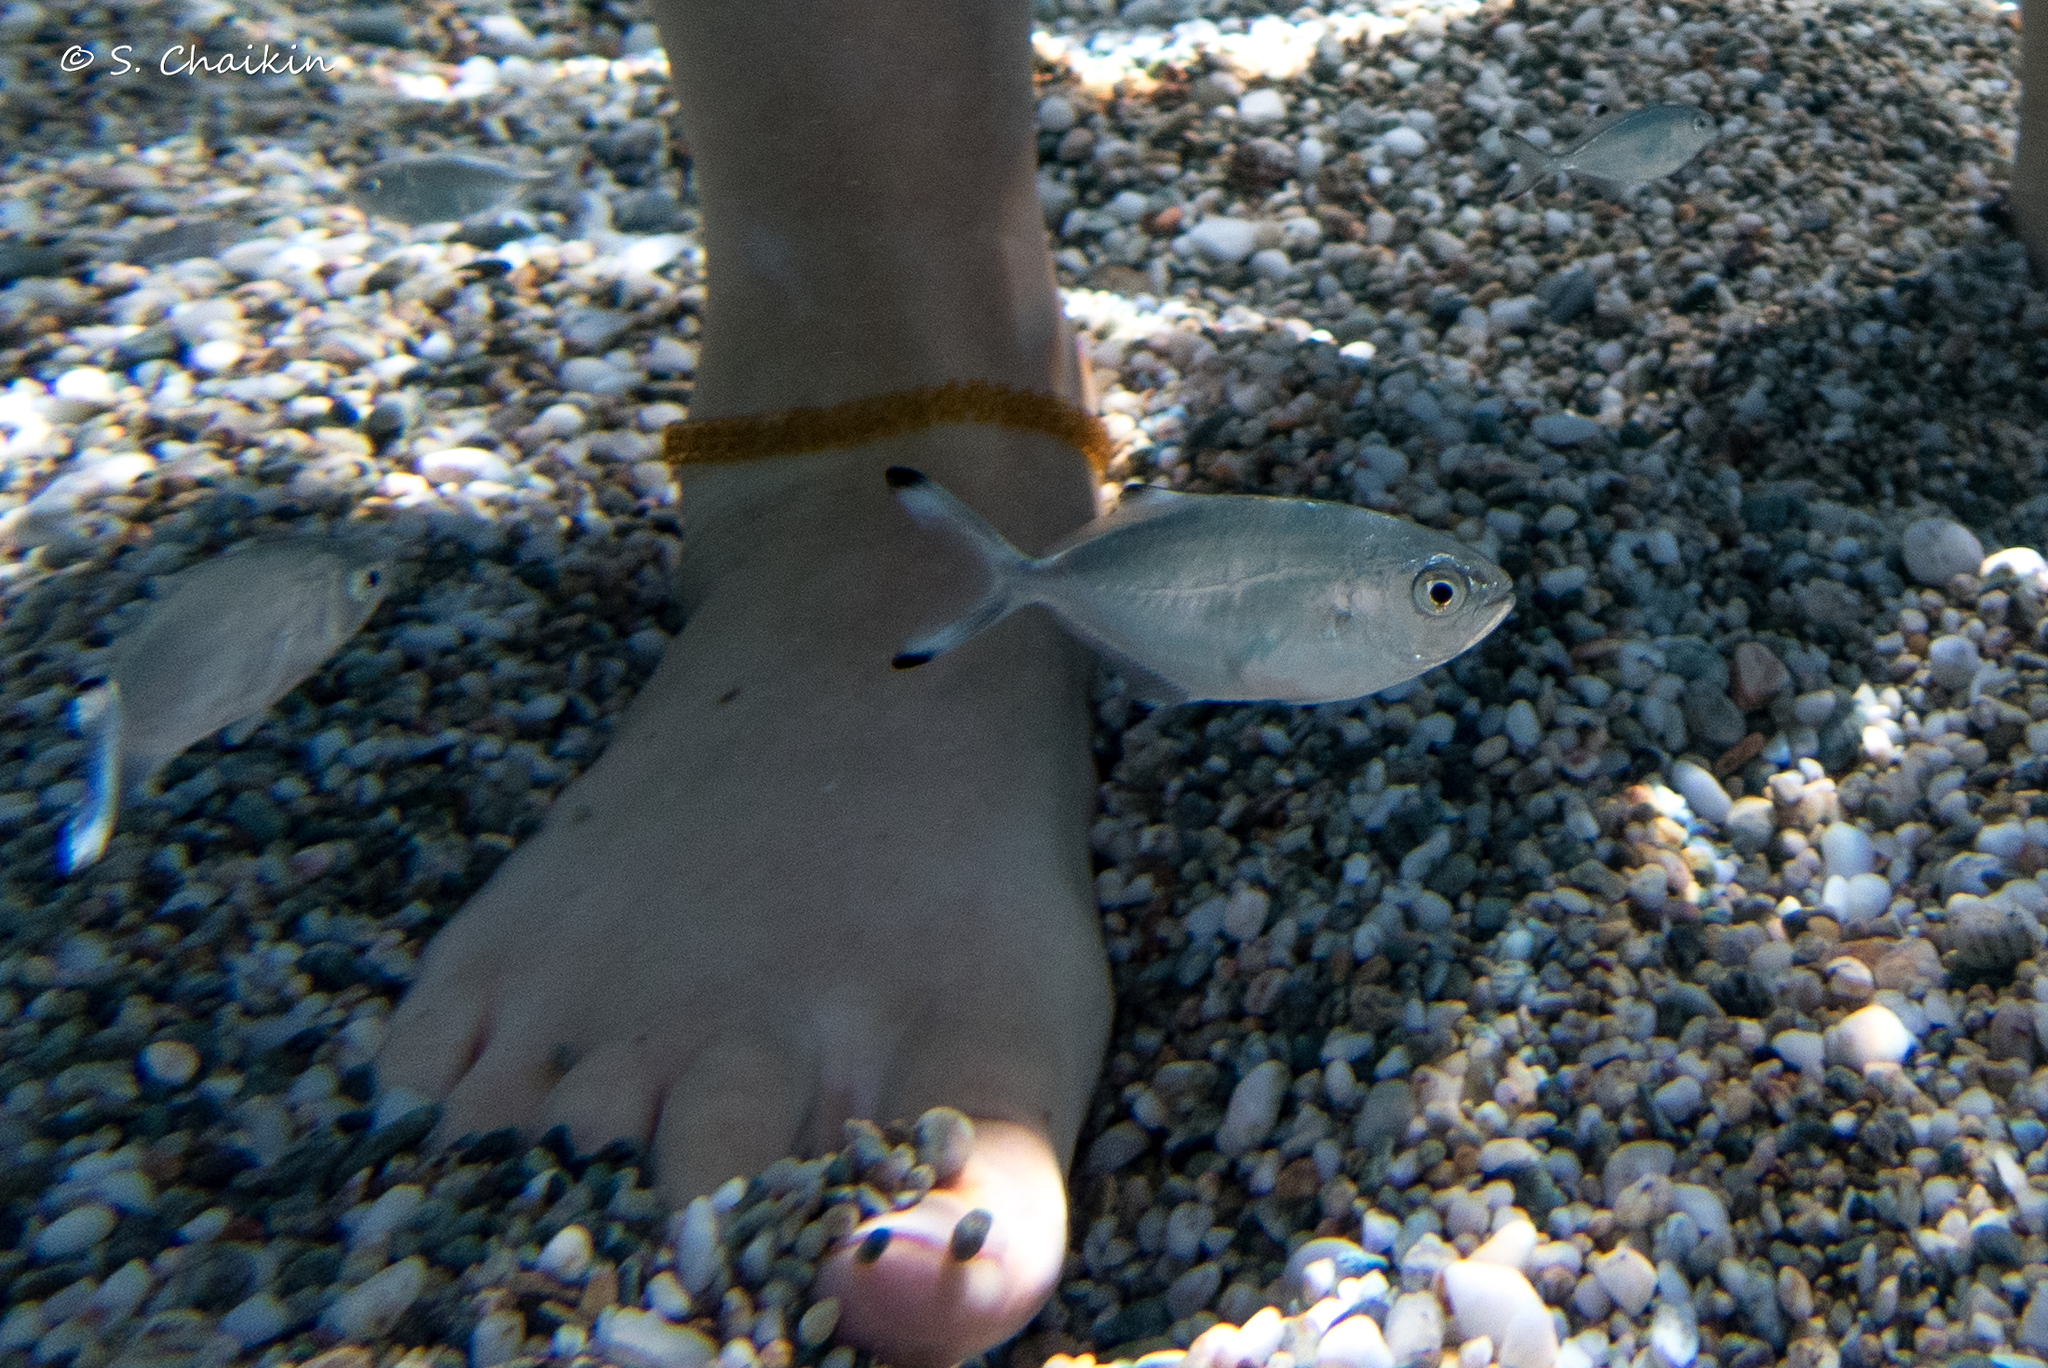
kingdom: Animalia
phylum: Chordata
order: Perciformes
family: Carangidae
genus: Trachinotus
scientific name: Trachinotus ovatus
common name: Pompano
